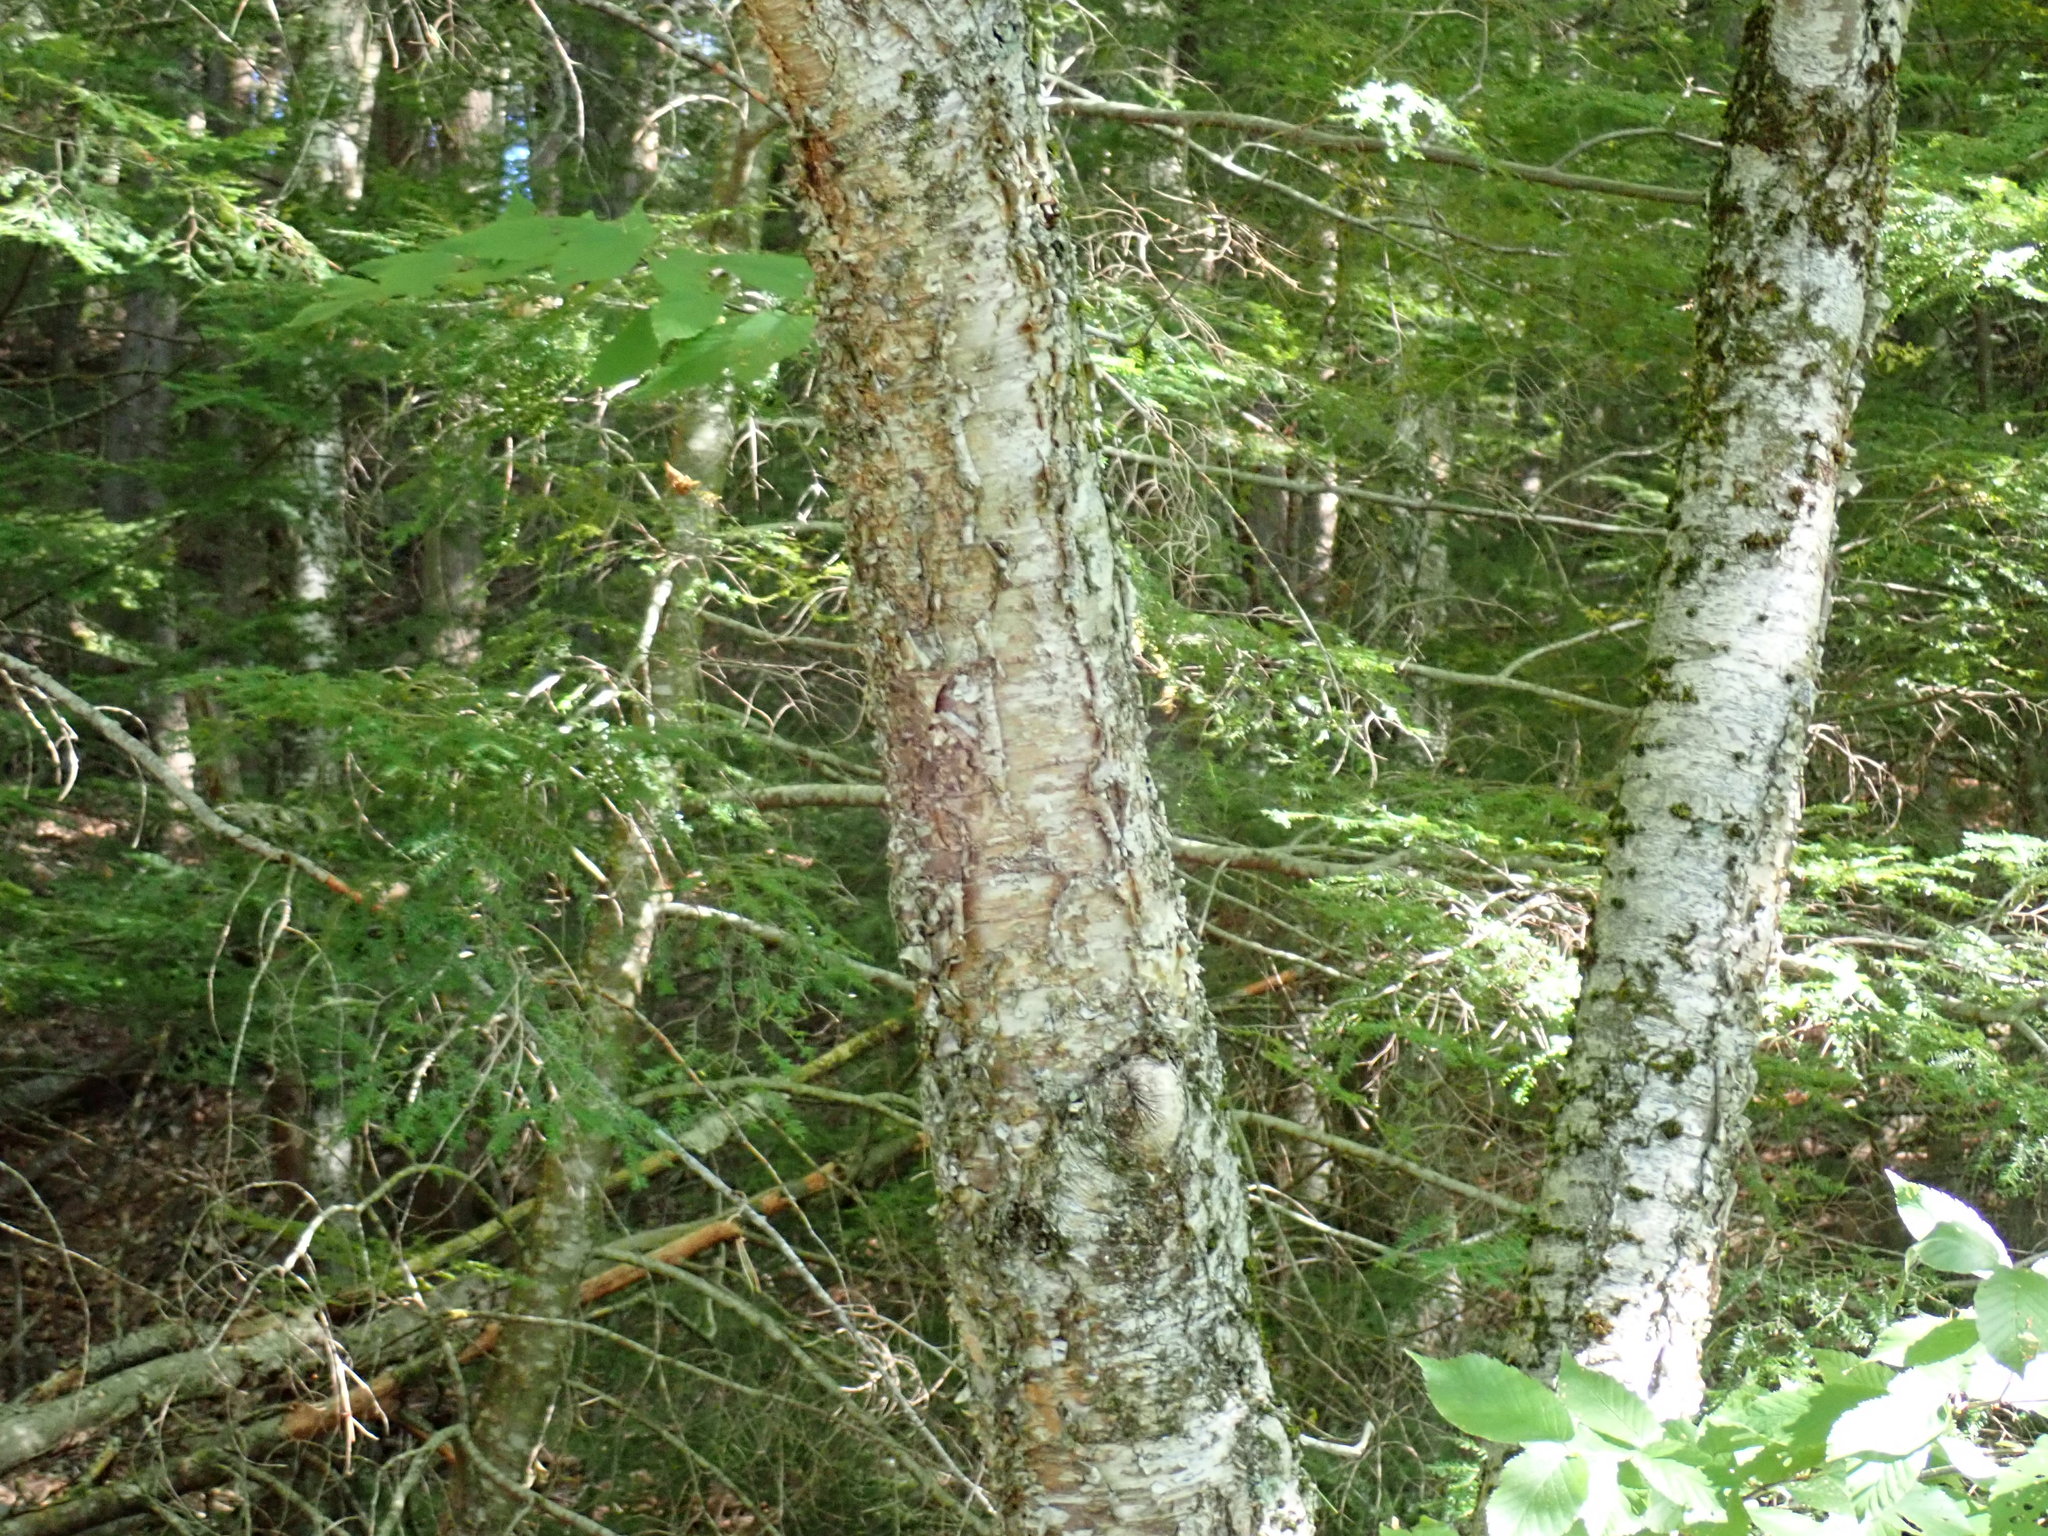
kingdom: Plantae
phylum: Tracheophyta
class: Magnoliopsida
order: Fagales
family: Betulaceae
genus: Betula
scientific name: Betula alleghaniensis
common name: Yellow birch
